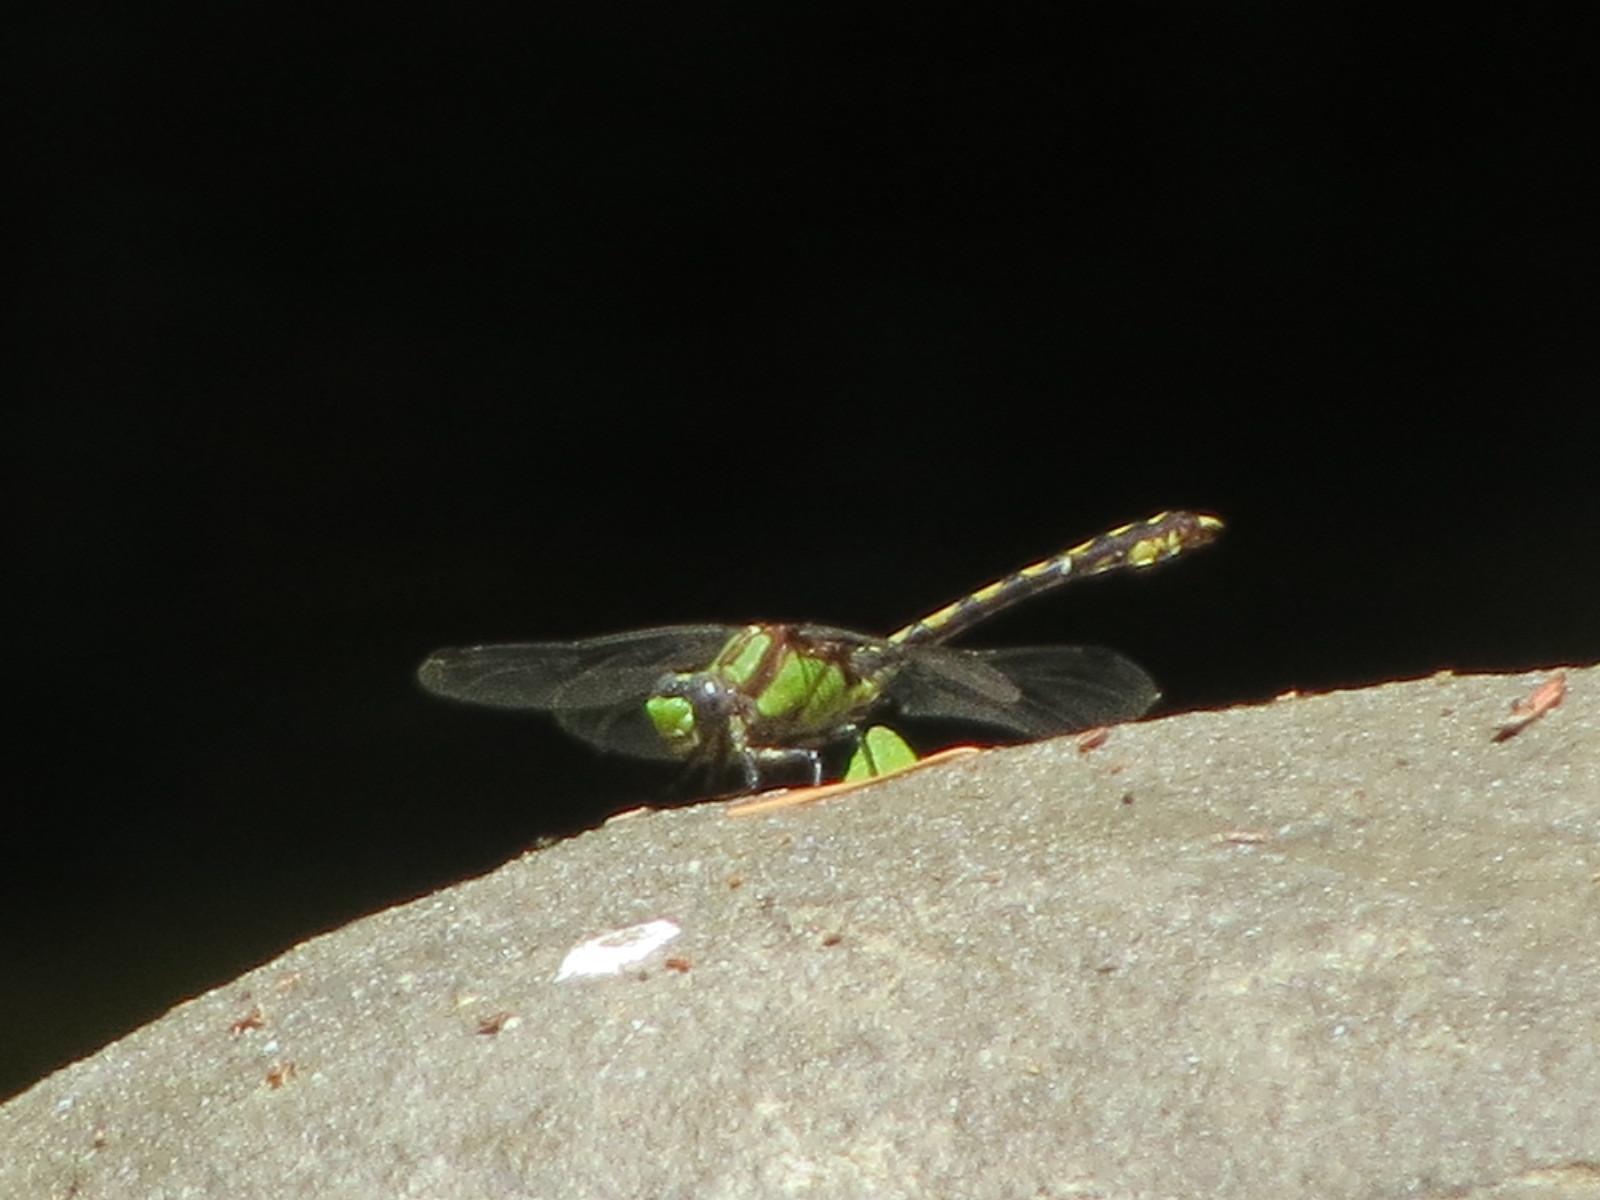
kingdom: Animalia
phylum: Arthropoda
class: Insecta
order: Odonata
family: Gomphidae
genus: Ophiogomphus
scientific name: Ophiogomphus bison
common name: Bison snaketail
